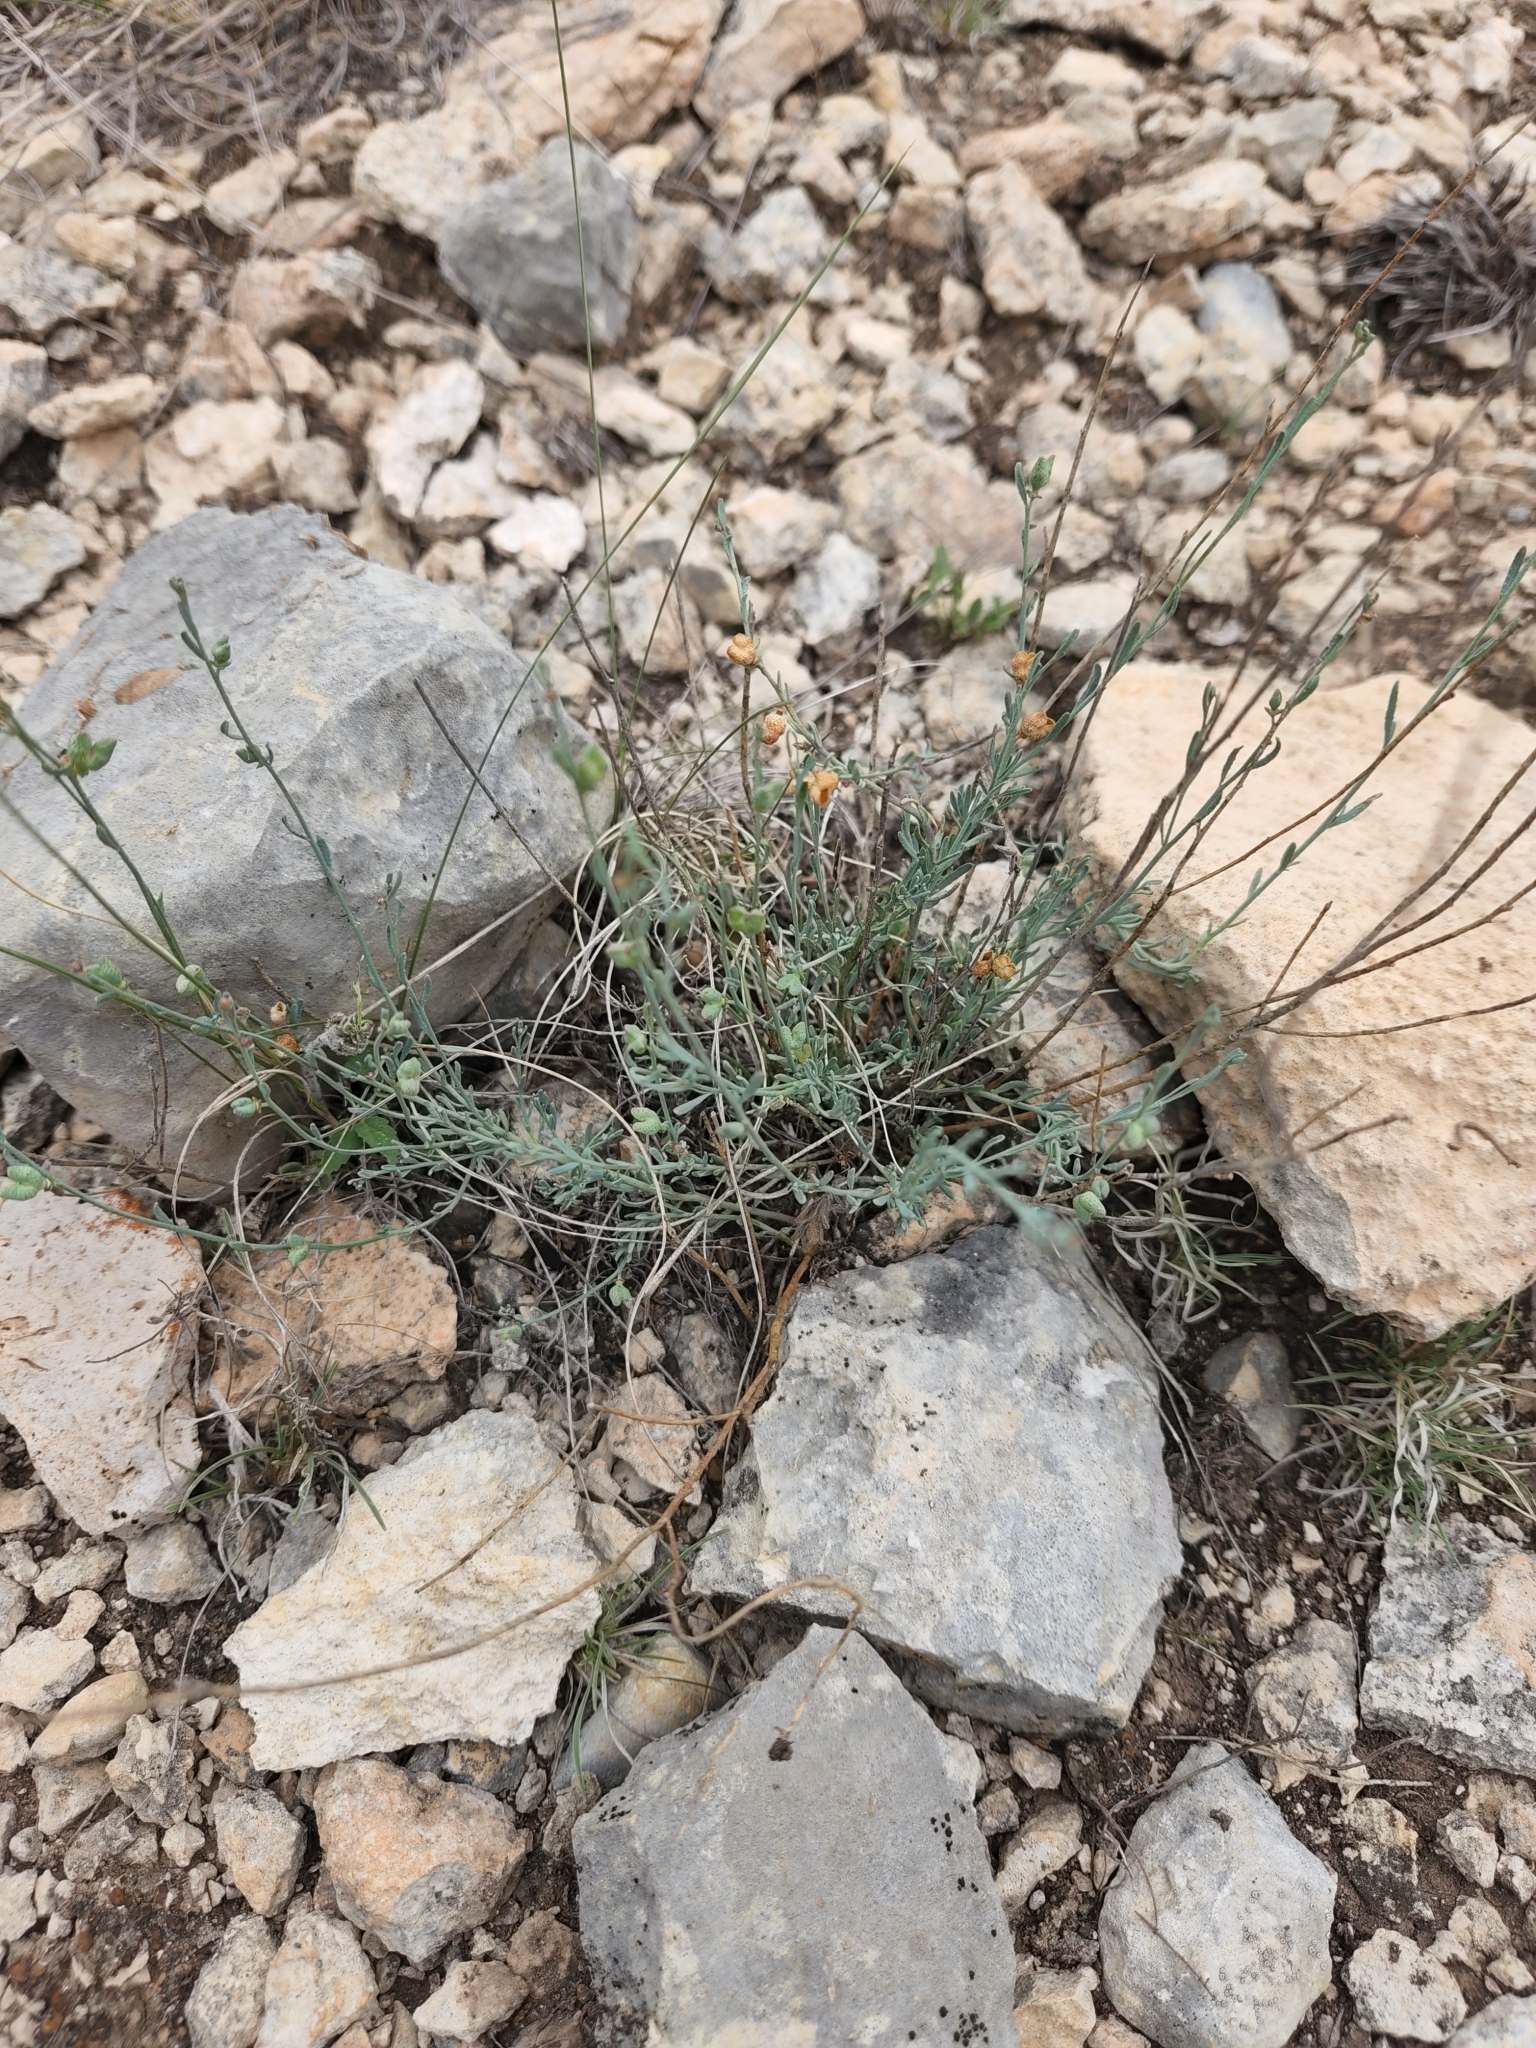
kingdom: Plantae
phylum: Tracheophyta
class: Magnoliopsida
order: Sapindales
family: Rutaceae
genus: Thamnosma
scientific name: Thamnosma texana
